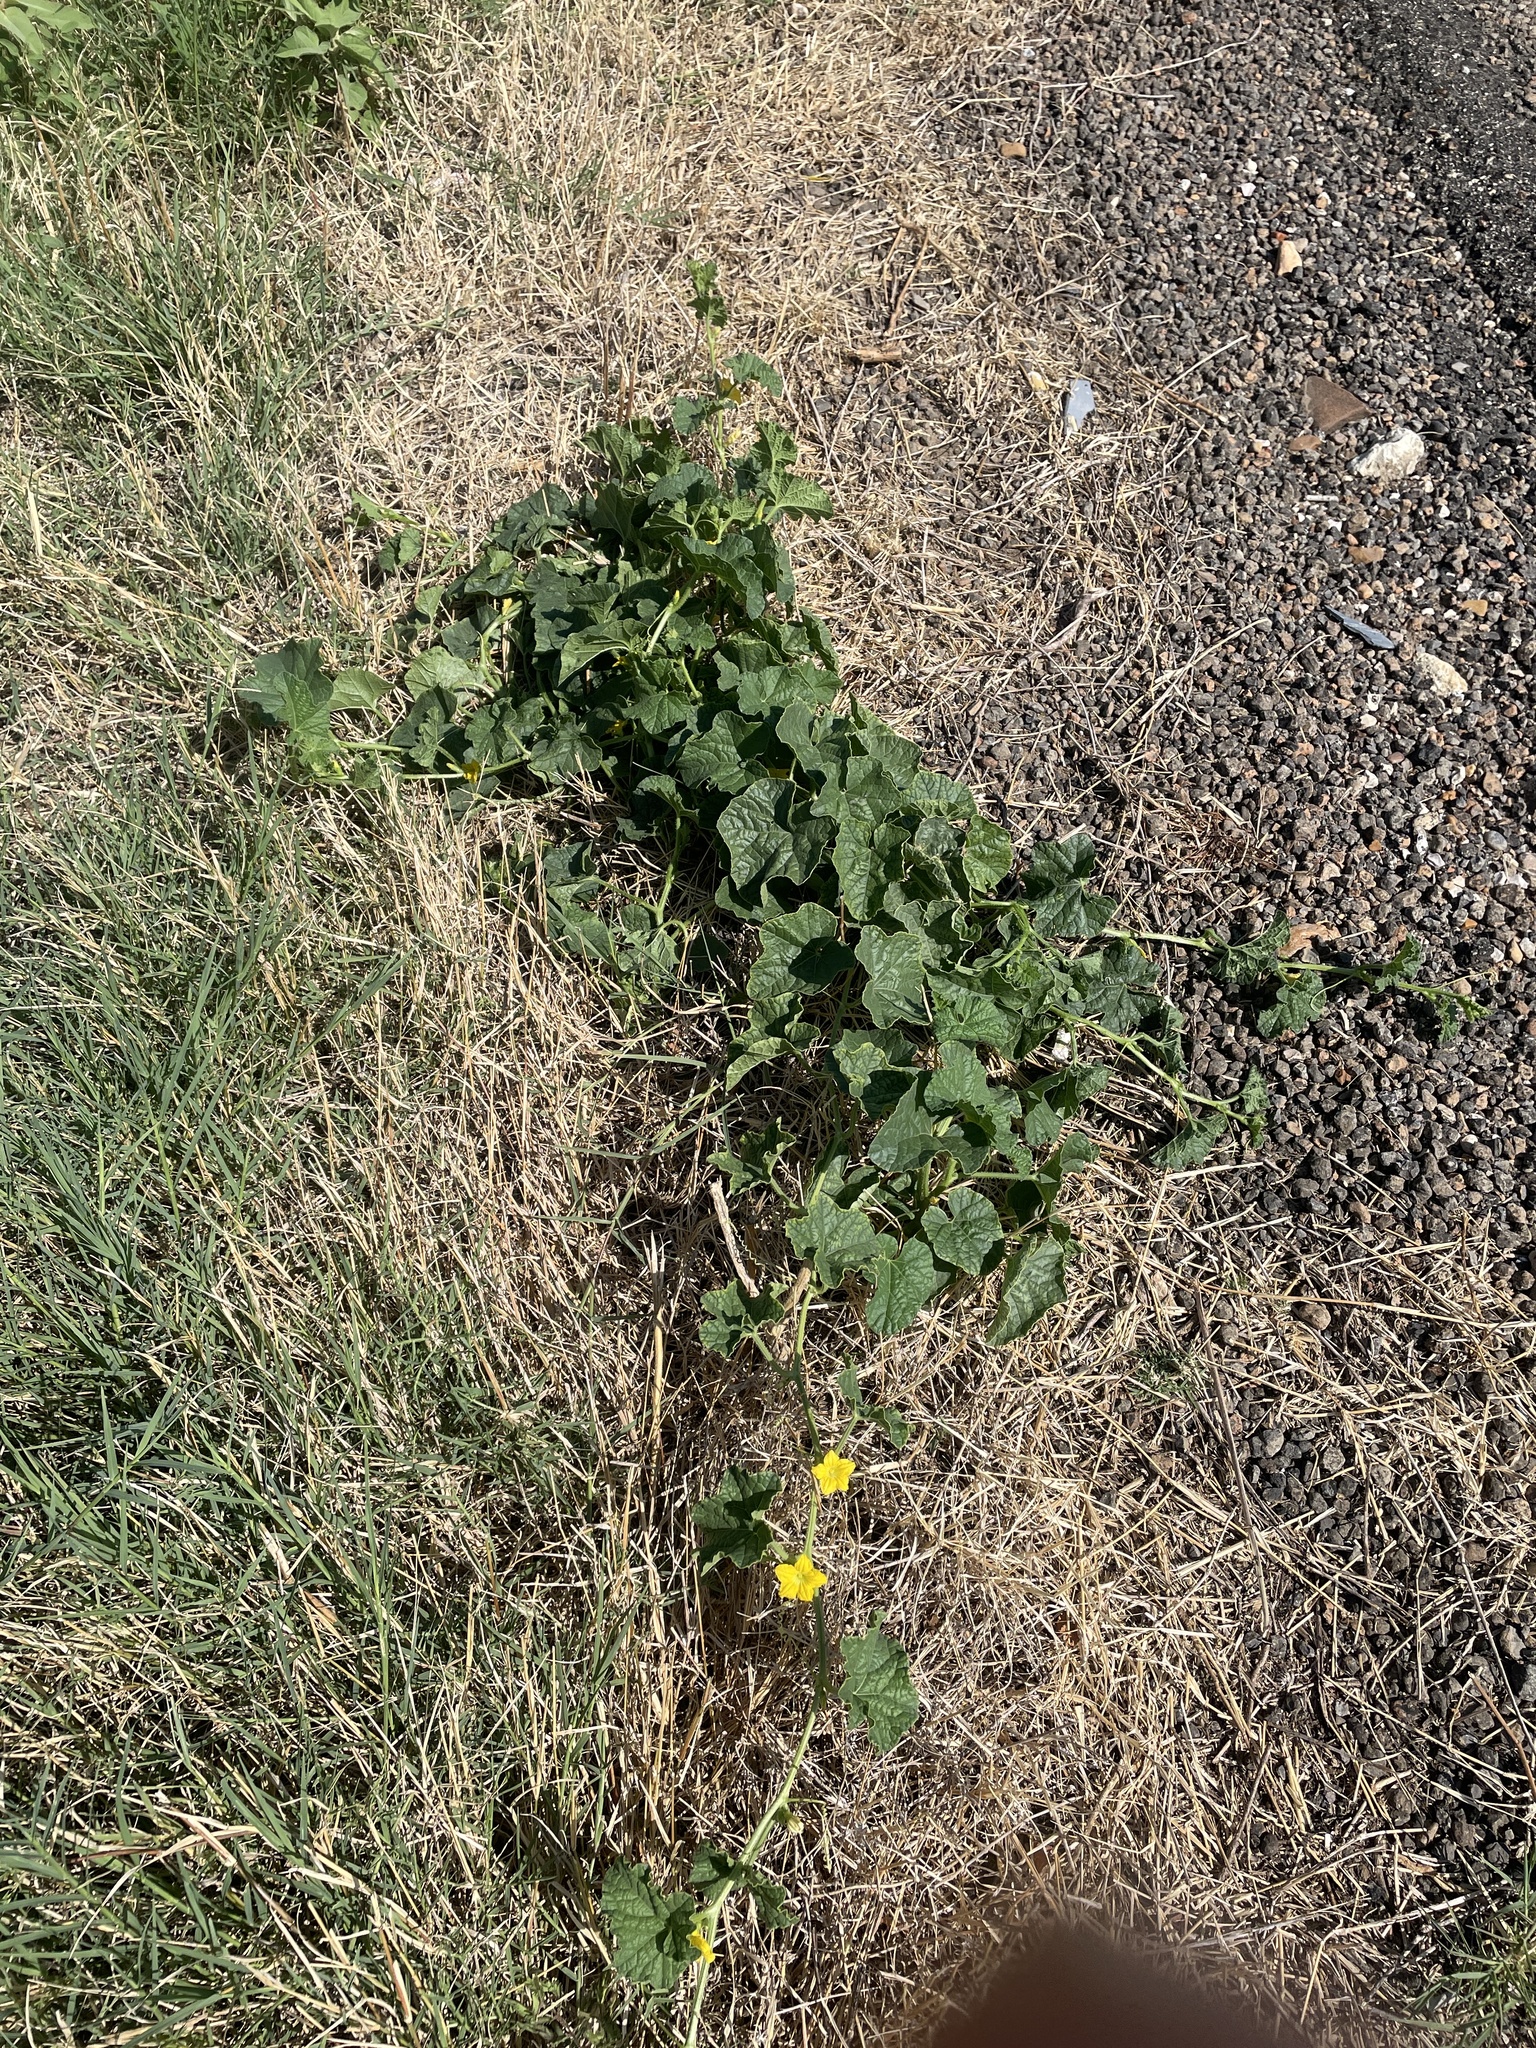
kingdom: Plantae
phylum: Tracheophyta
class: Magnoliopsida
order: Cucurbitales
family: Cucurbitaceae
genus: Cucumis
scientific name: Cucumis melo
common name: Melon
